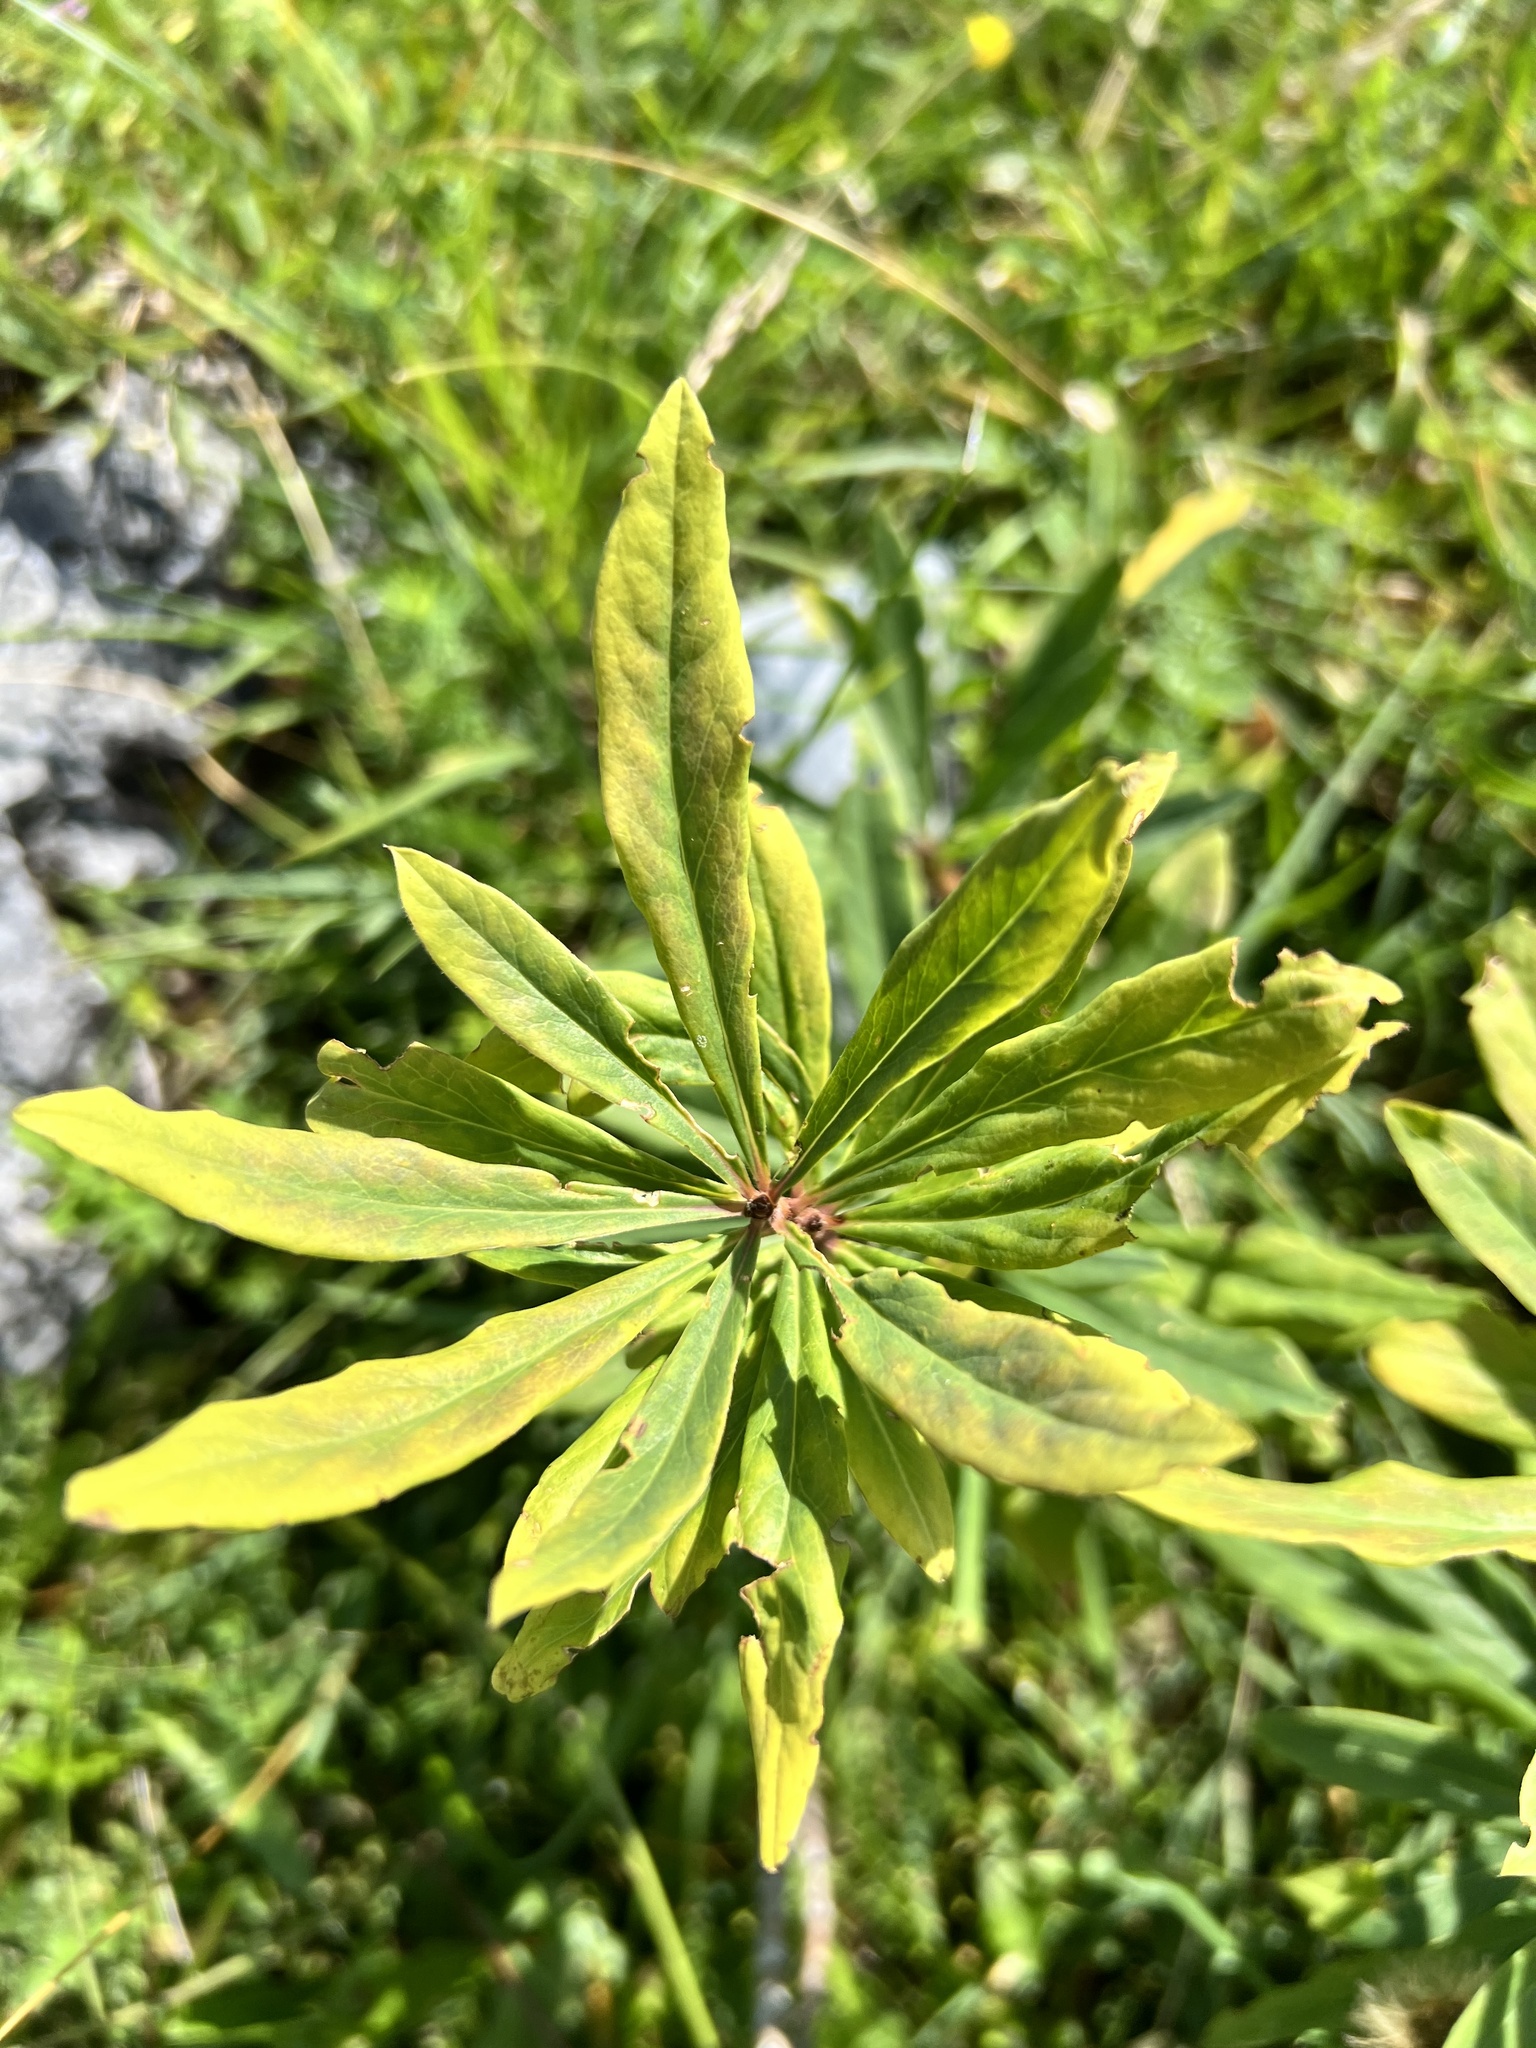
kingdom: Plantae
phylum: Tracheophyta
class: Magnoliopsida
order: Malvales
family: Thymelaeaceae
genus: Daphne
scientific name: Daphne mezereum
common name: Mezereon
